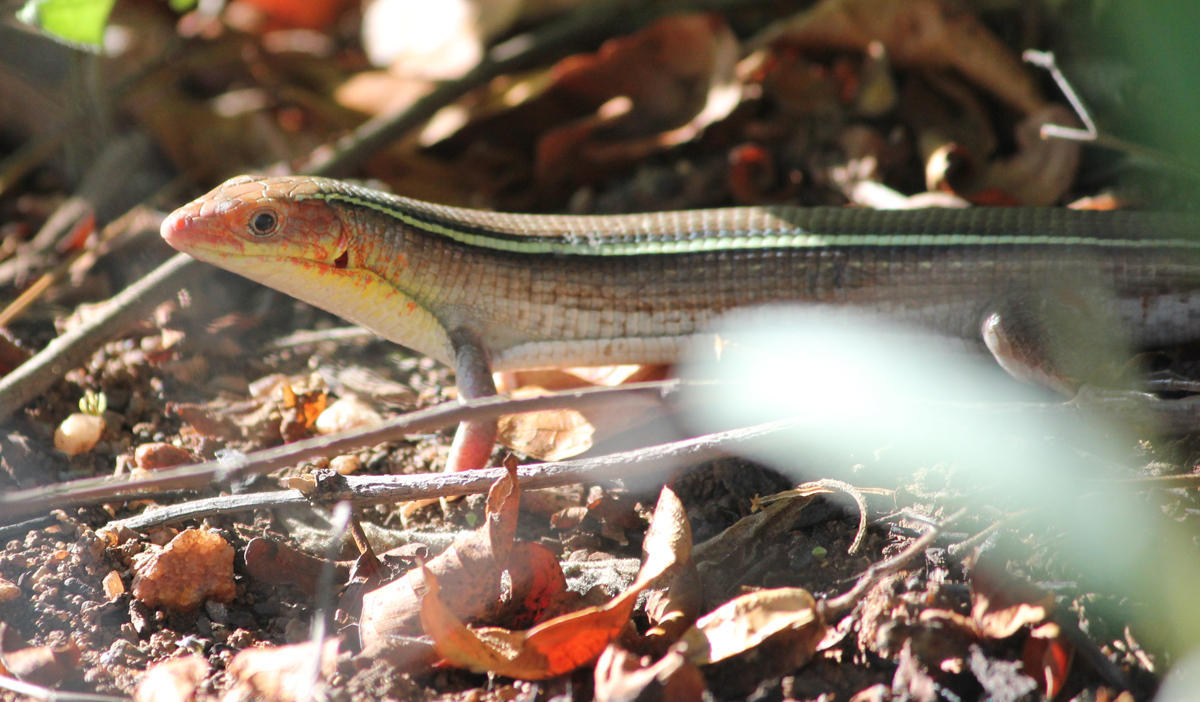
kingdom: Animalia
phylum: Chordata
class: Squamata
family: Gerrhosauridae
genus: Gerrhosaurus
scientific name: Gerrhosaurus flavigularis
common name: Yellow-throated plated lizard
